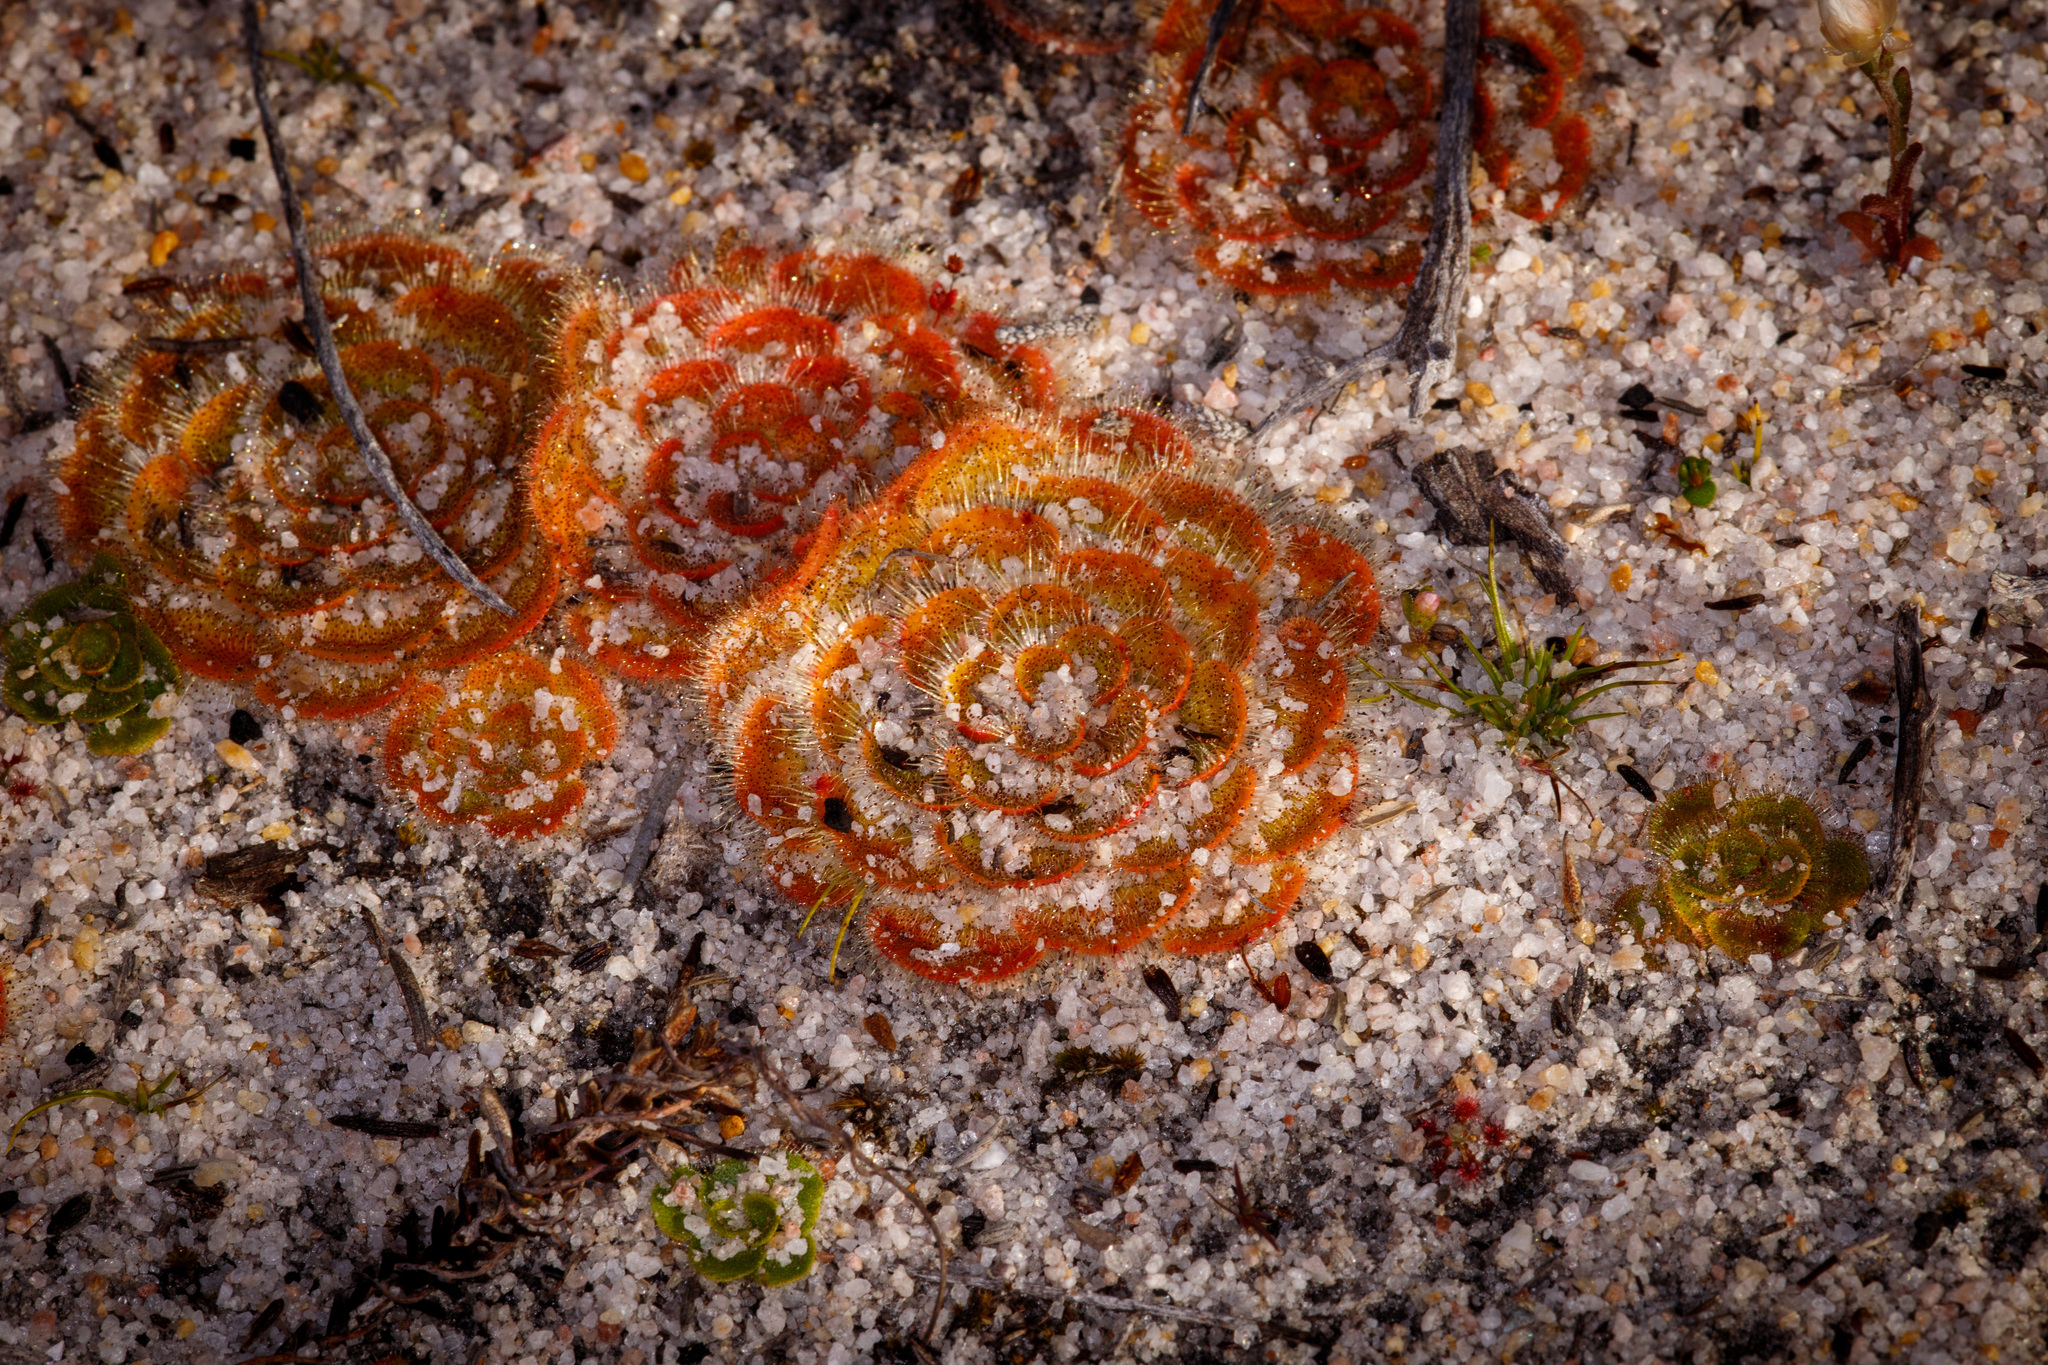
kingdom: Plantae
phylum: Tracheophyta
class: Magnoliopsida
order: Caryophyllales
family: Droseraceae
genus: Drosera
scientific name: Drosera zonaria
